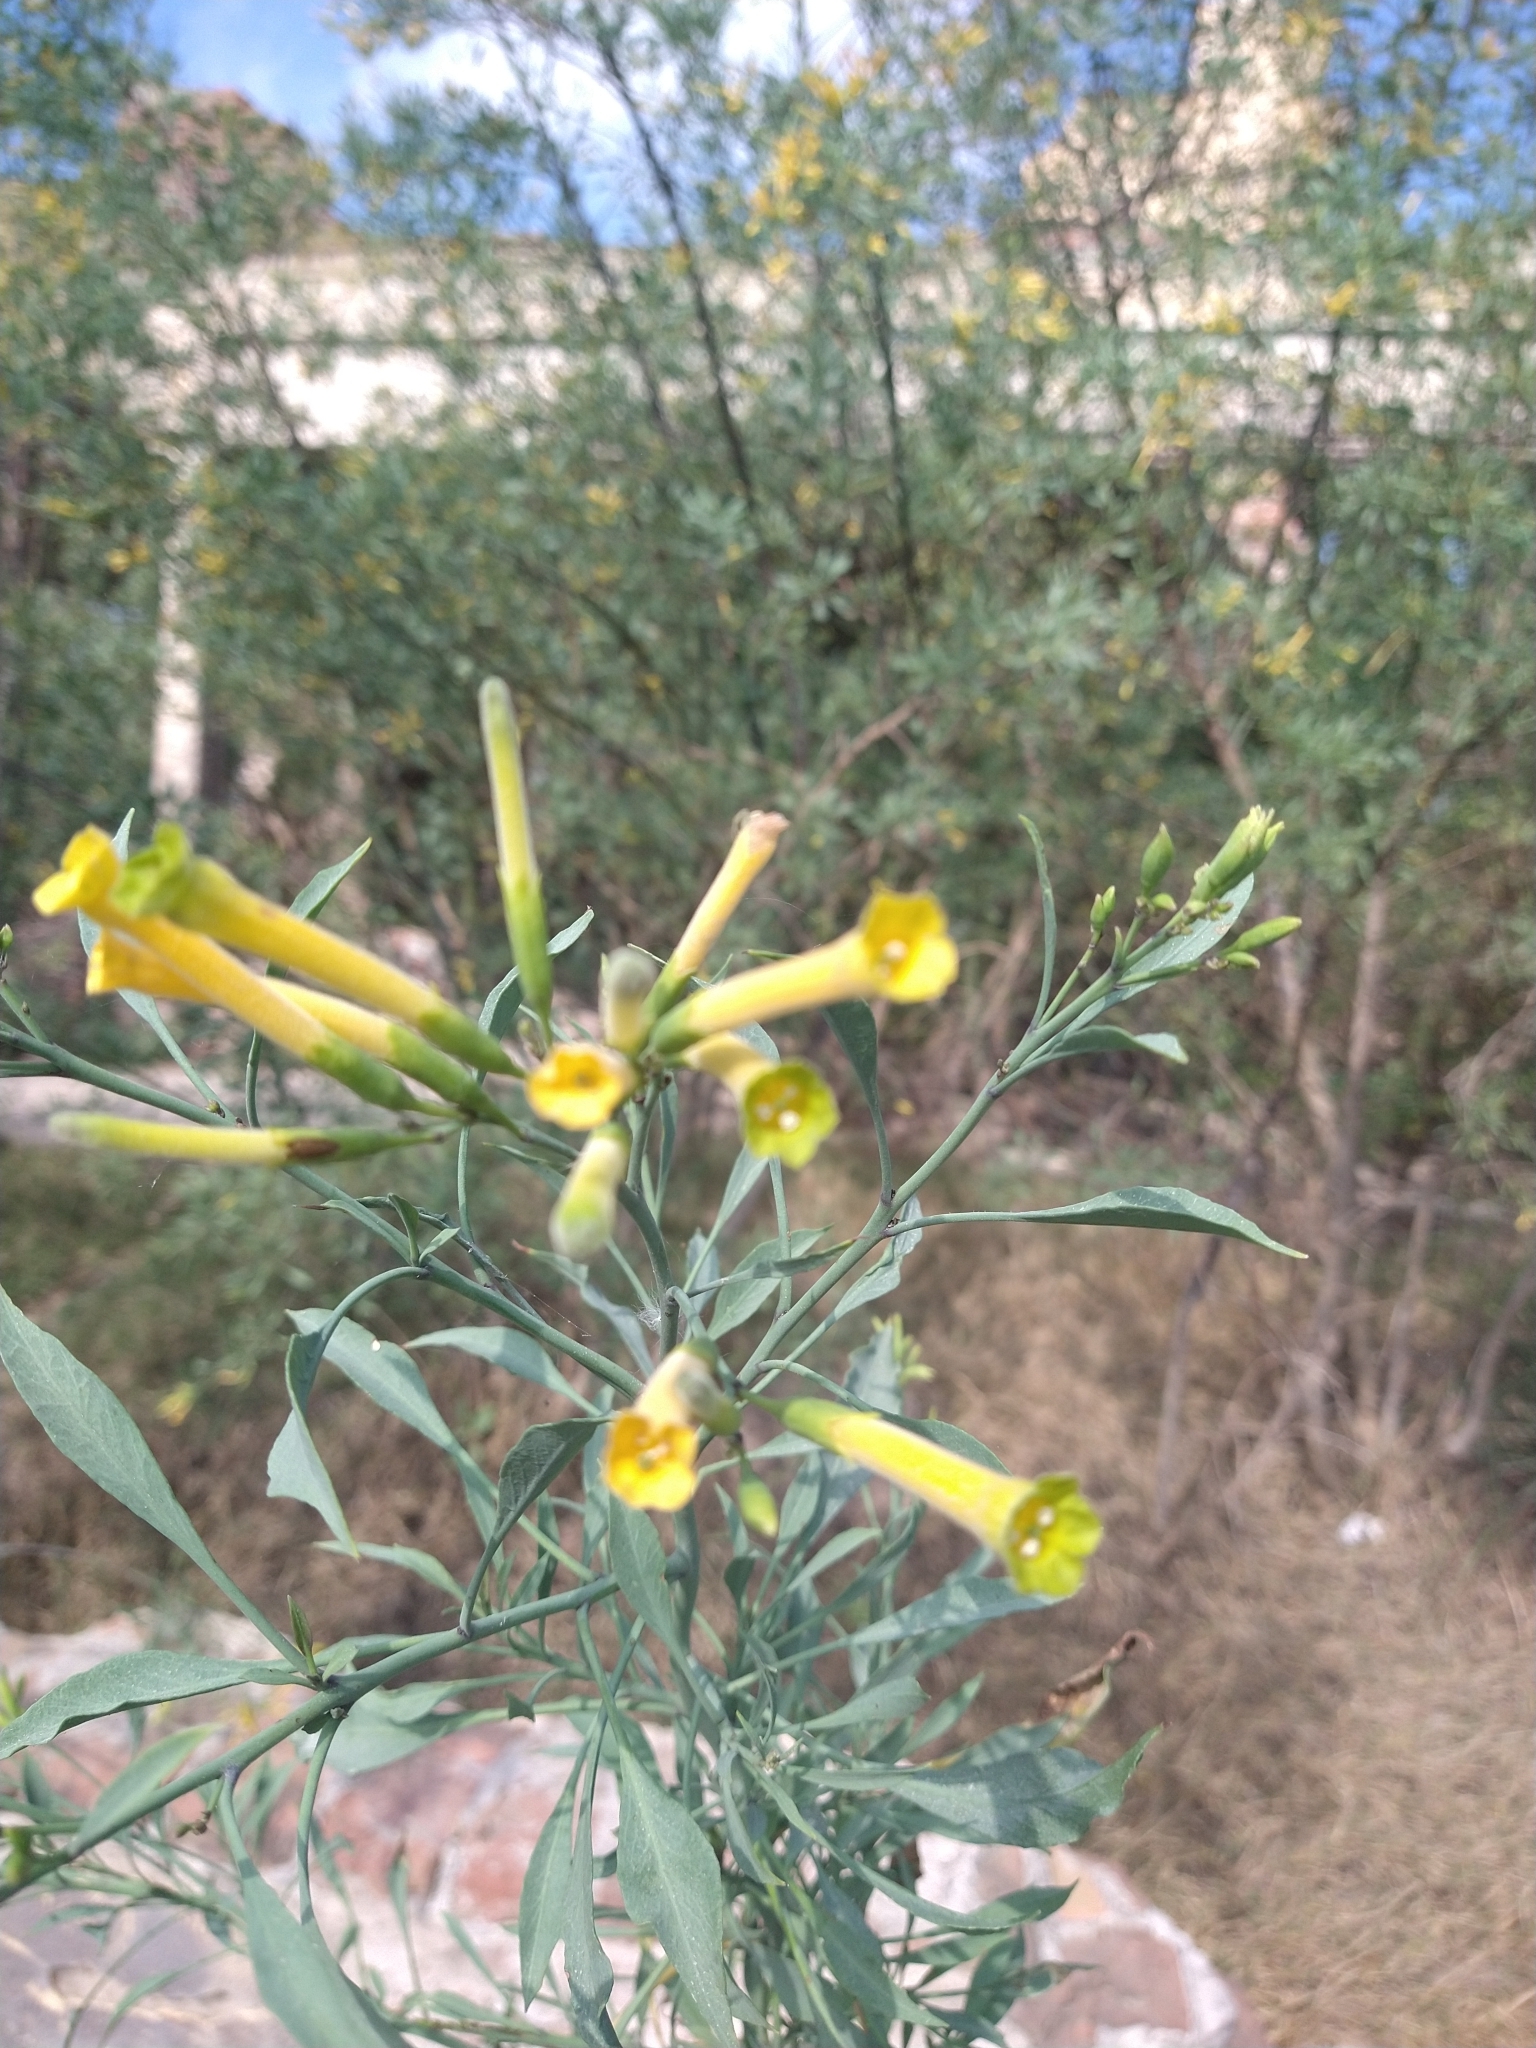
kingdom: Plantae
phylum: Tracheophyta
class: Magnoliopsida
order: Solanales
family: Solanaceae
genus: Nicotiana
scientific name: Nicotiana glauca
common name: Tree tobacco
